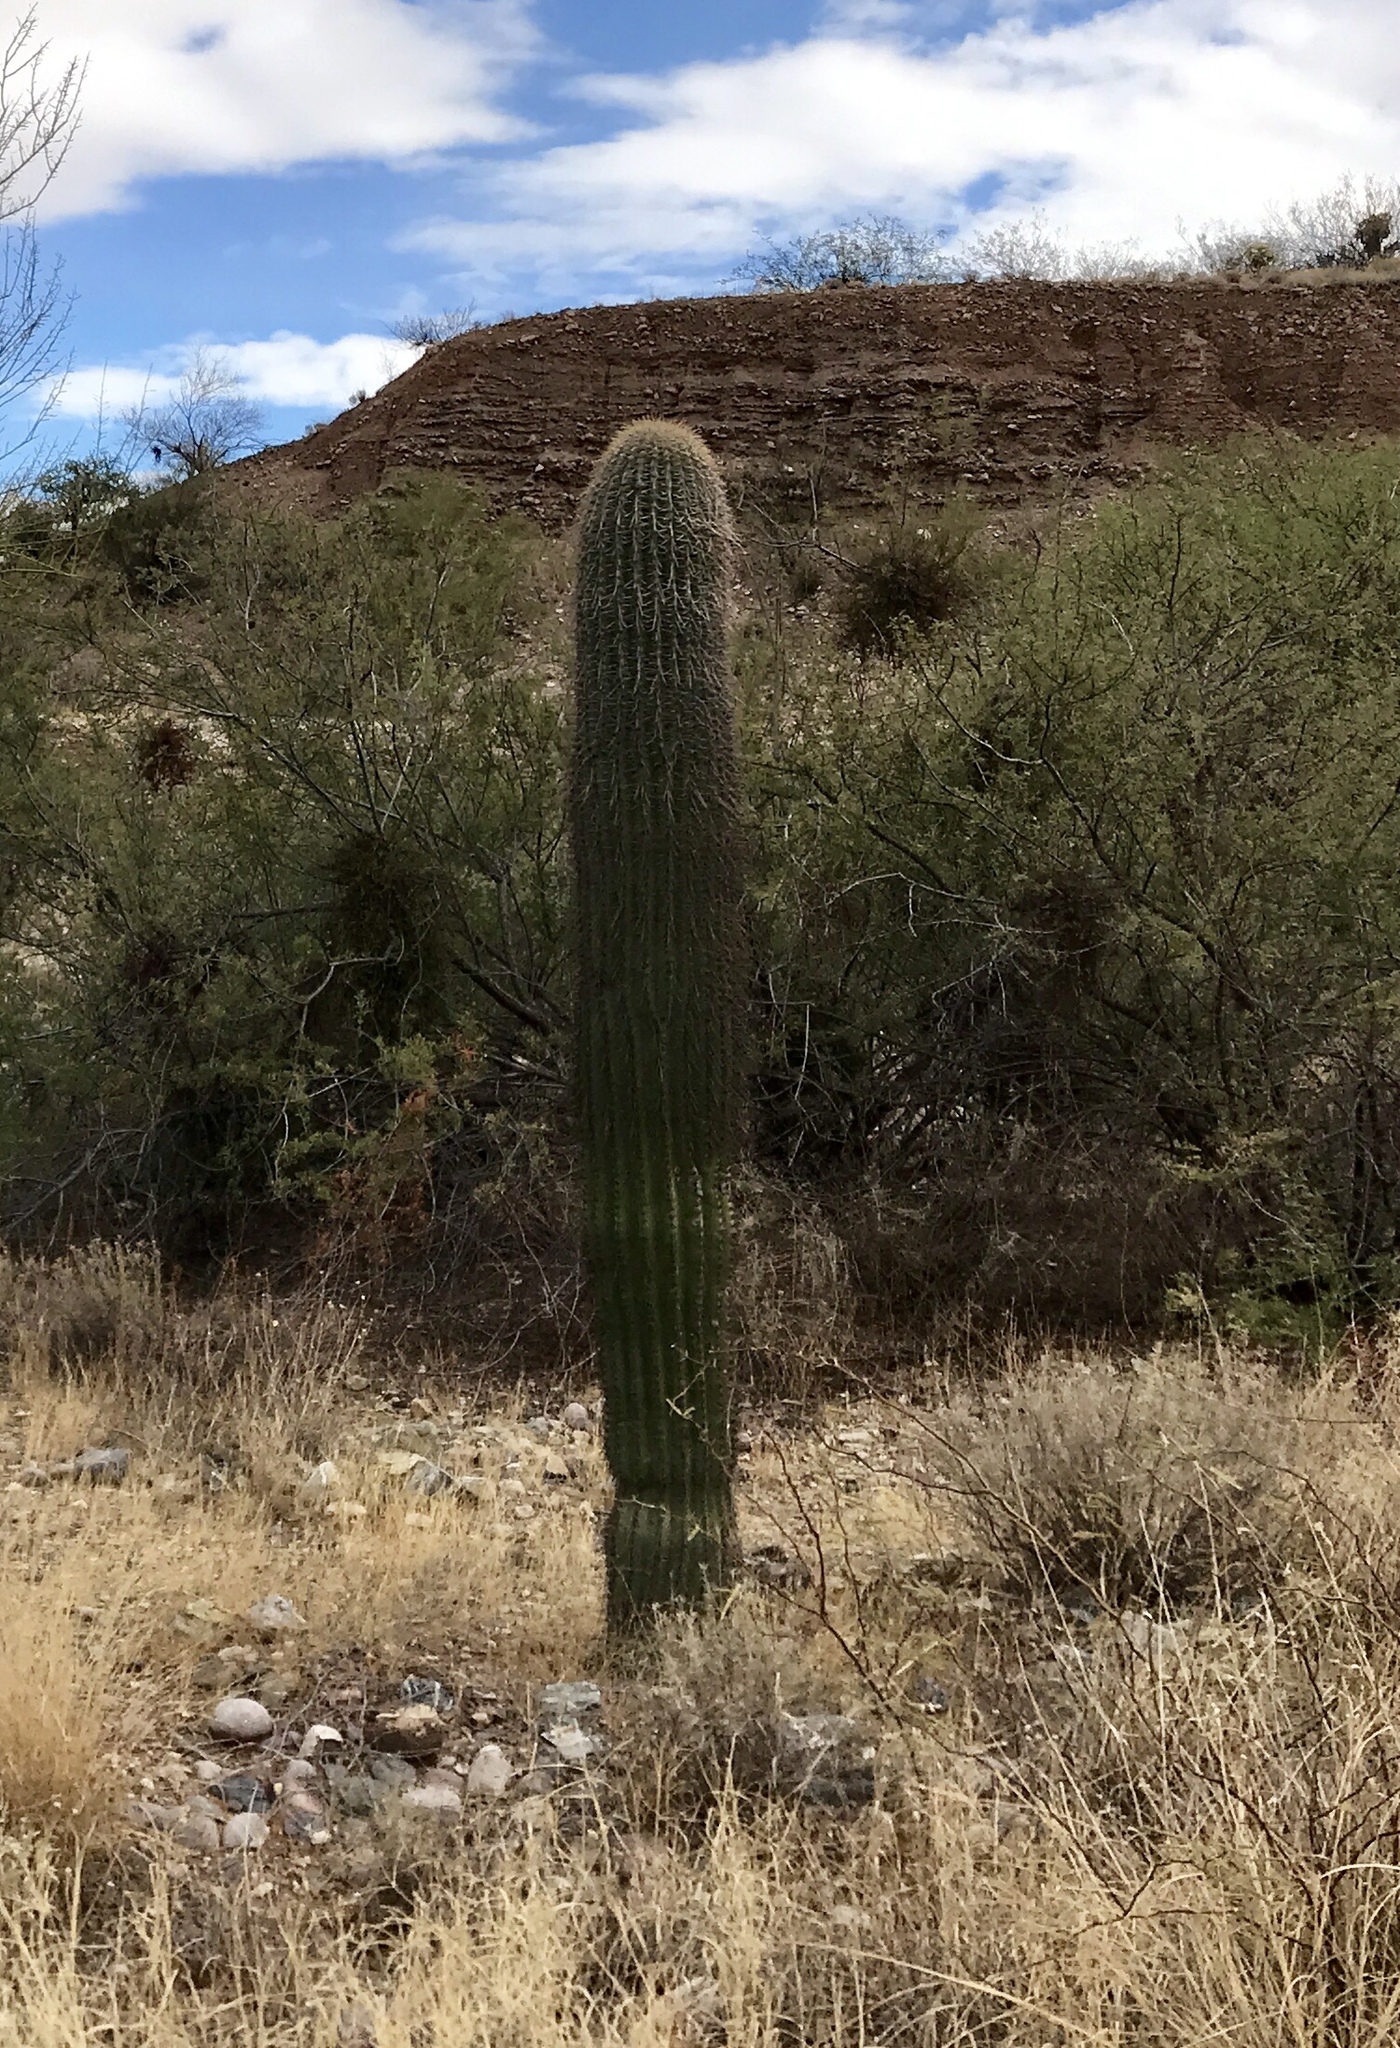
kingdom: Plantae
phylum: Tracheophyta
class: Magnoliopsida
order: Caryophyllales
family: Cactaceae
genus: Carnegiea
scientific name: Carnegiea gigantea
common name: Saguaro
